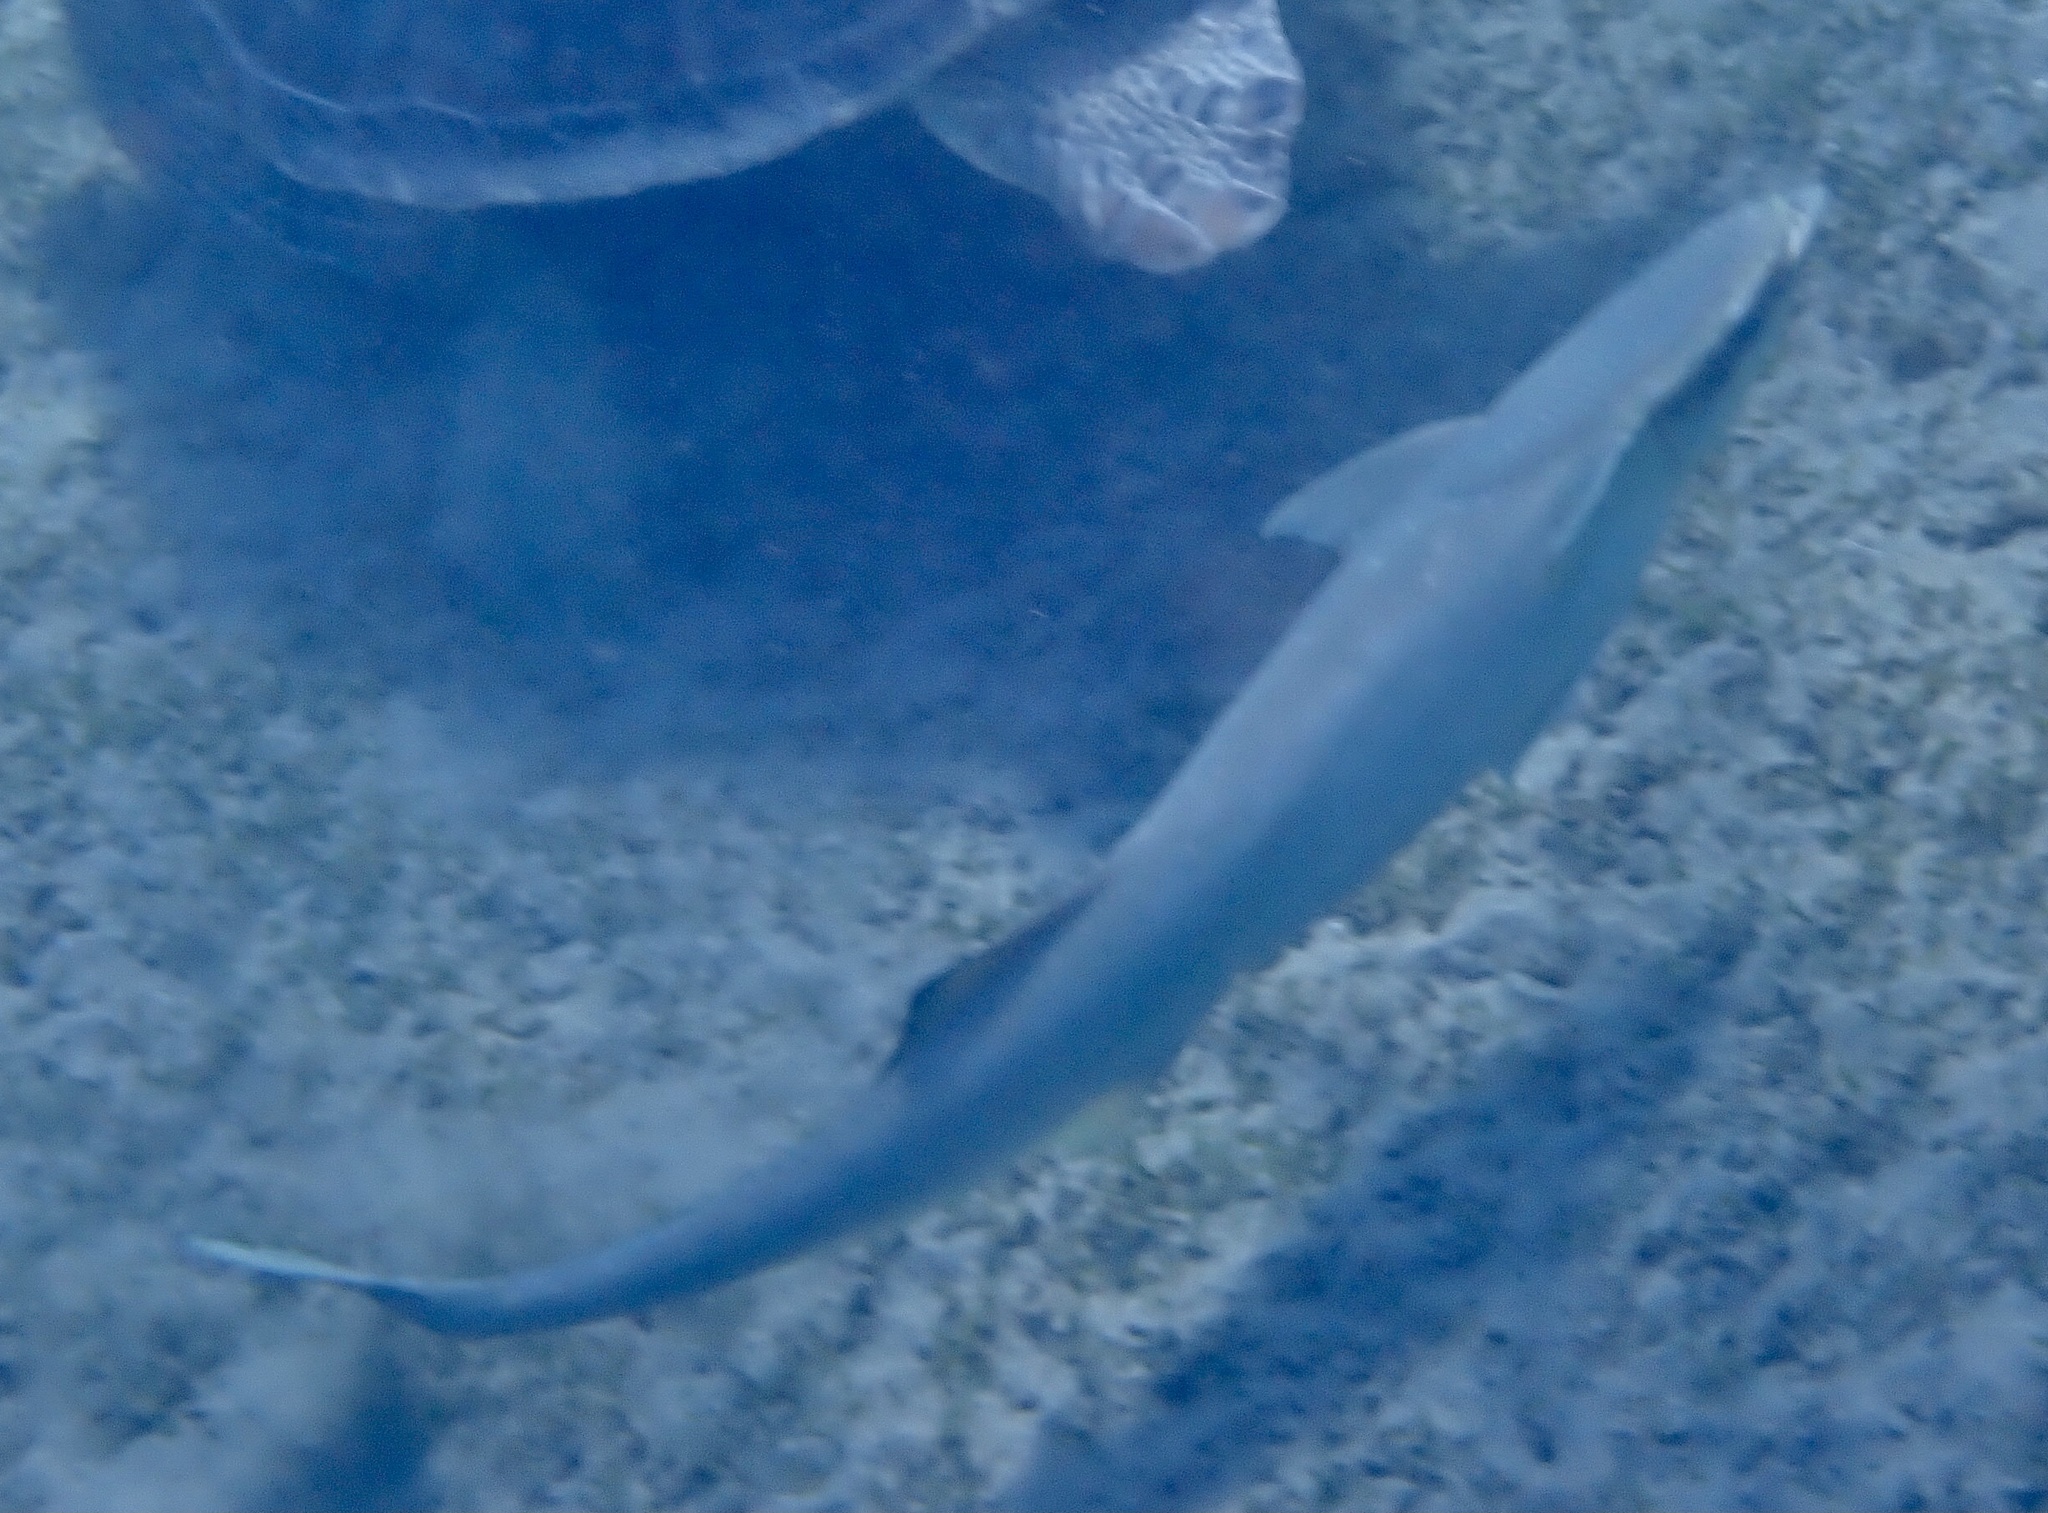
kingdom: Animalia
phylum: Chordata
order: Perciformes
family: Echeneidae
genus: Echeneis
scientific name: Echeneis naucrates
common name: Sharksucker
